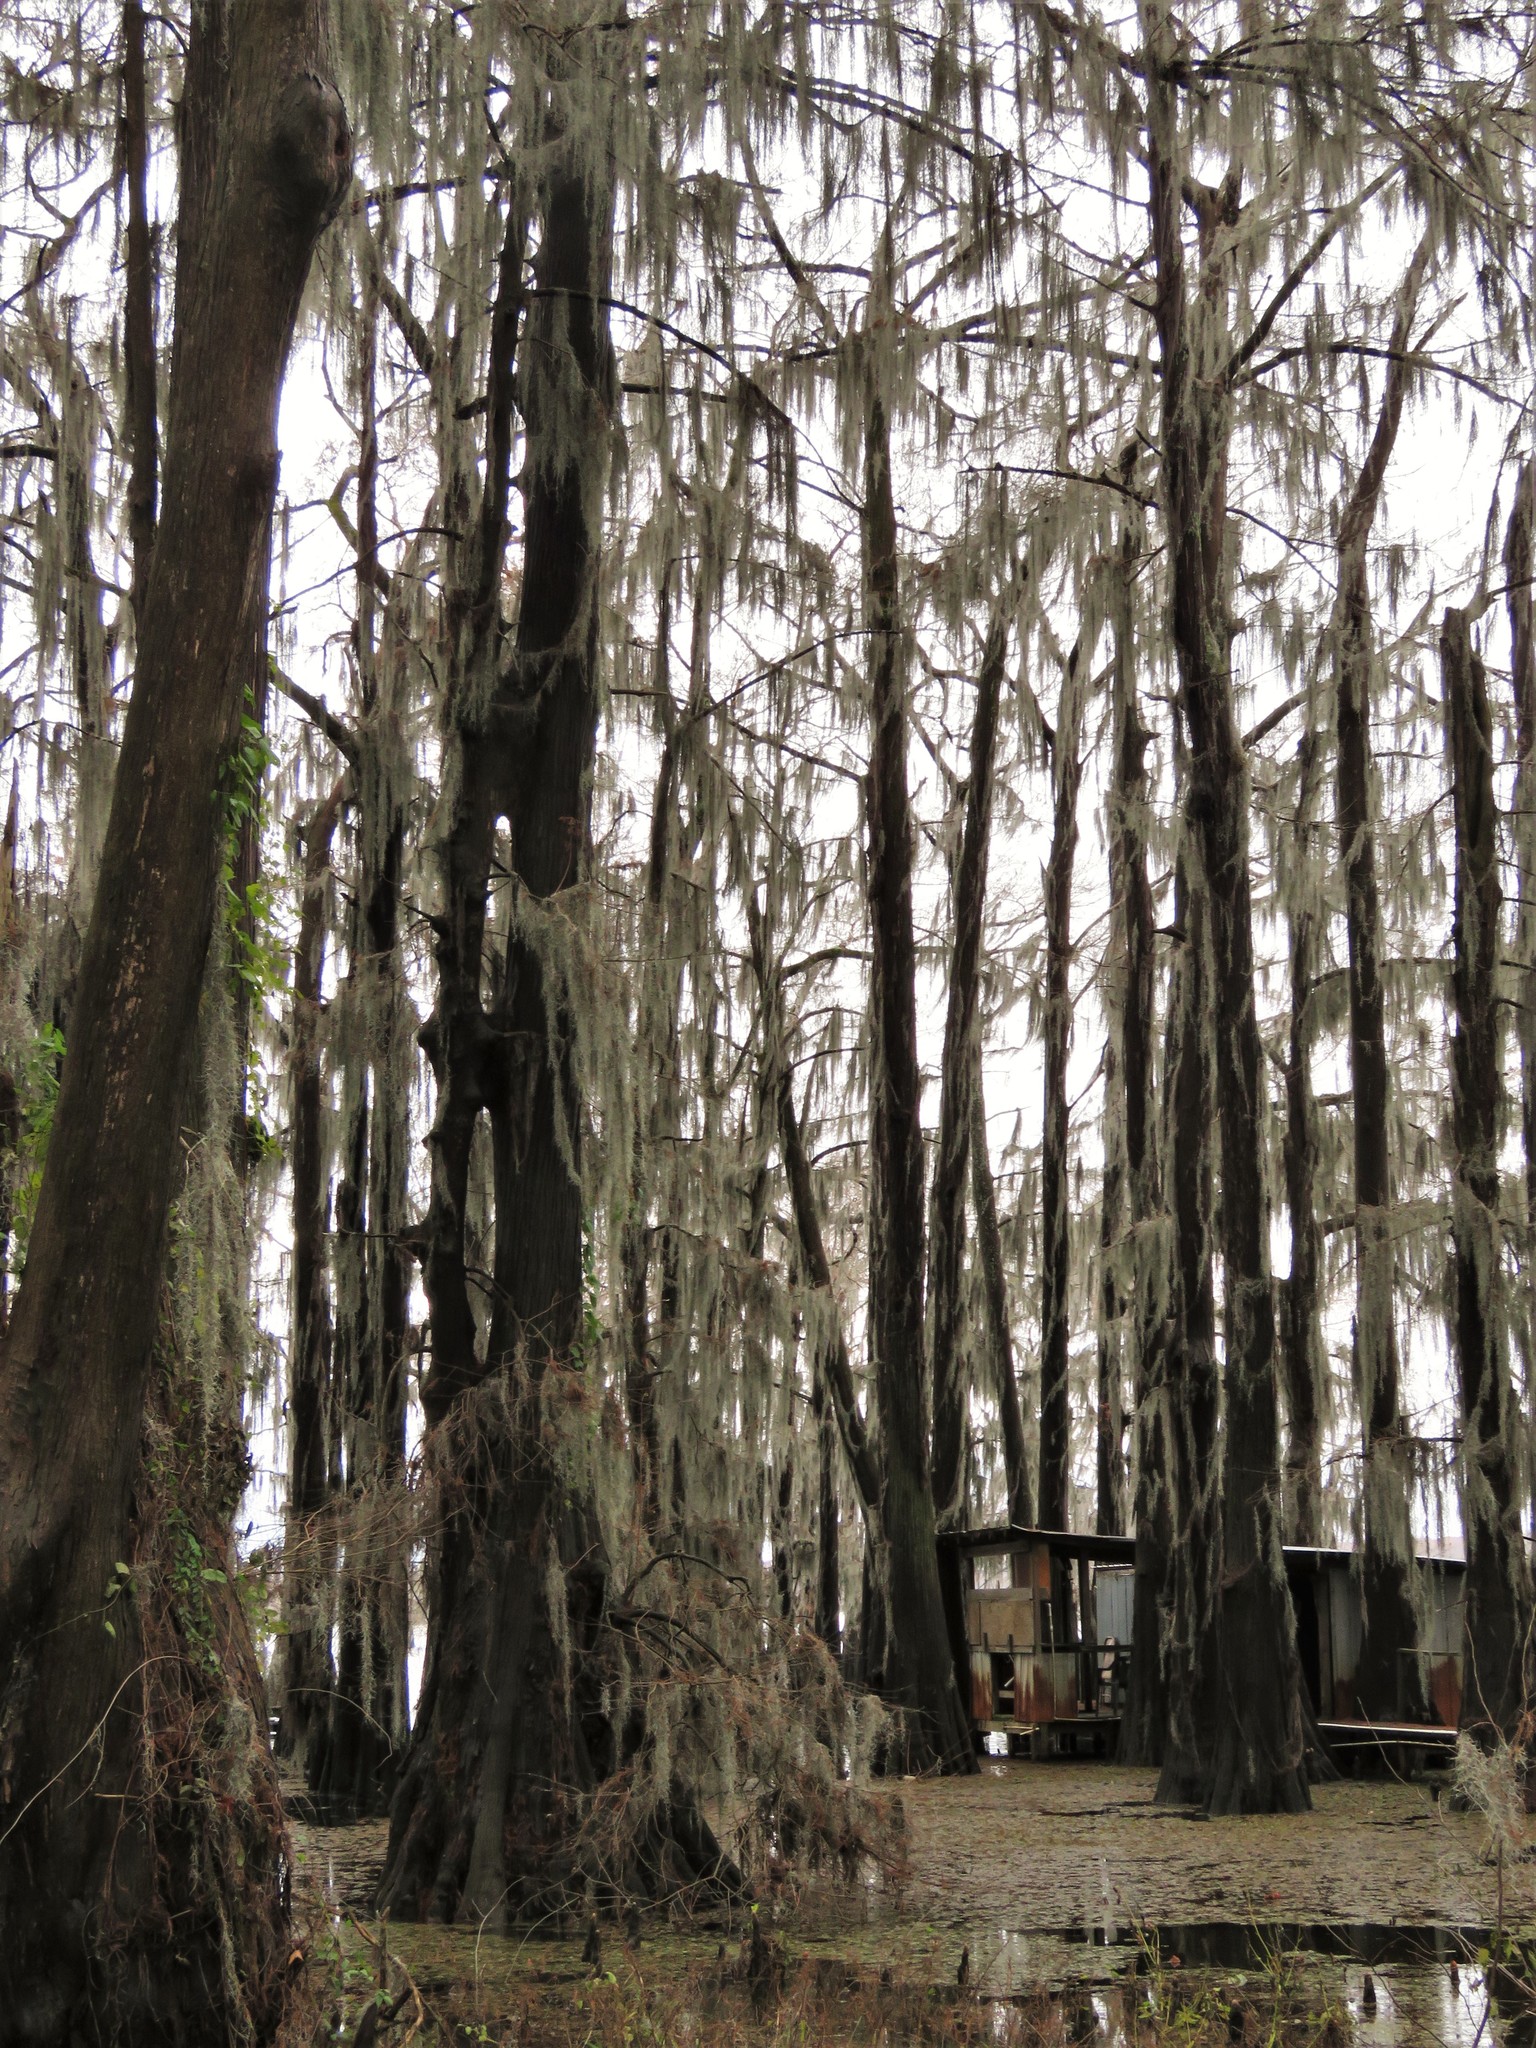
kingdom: Plantae
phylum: Tracheophyta
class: Pinopsida
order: Pinales
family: Cupressaceae
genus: Taxodium
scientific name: Taxodium distichum
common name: Bald cypress
